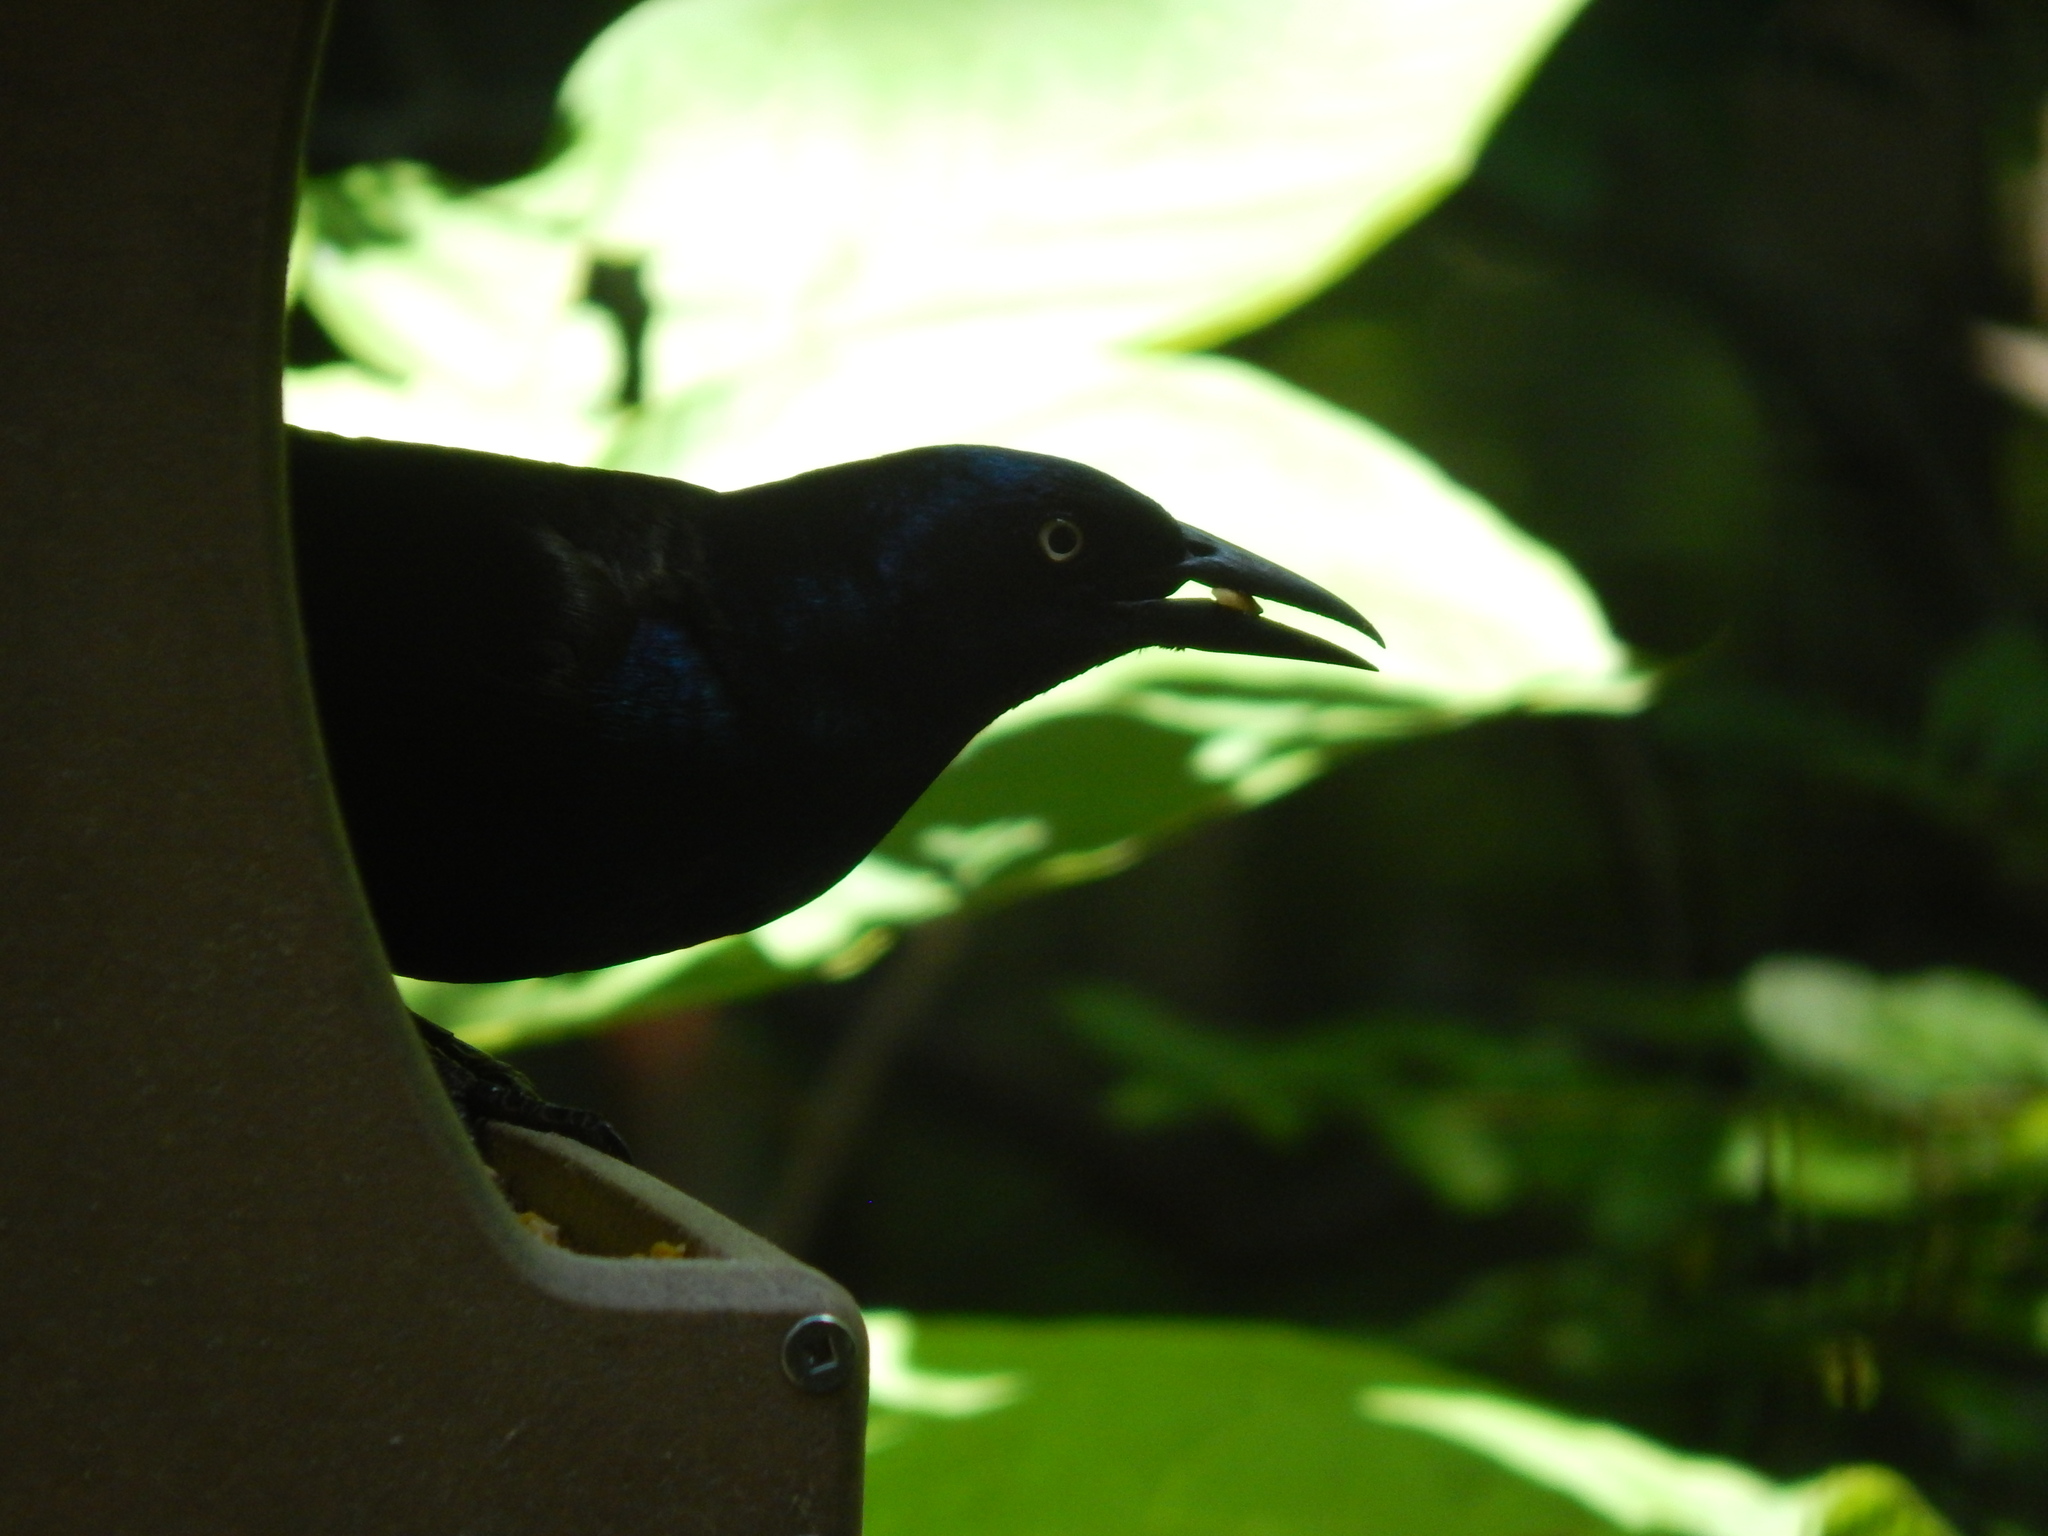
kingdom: Animalia
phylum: Chordata
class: Aves
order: Passeriformes
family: Icteridae
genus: Quiscalus
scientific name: Quiscalus quiscula
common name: Common grackle
